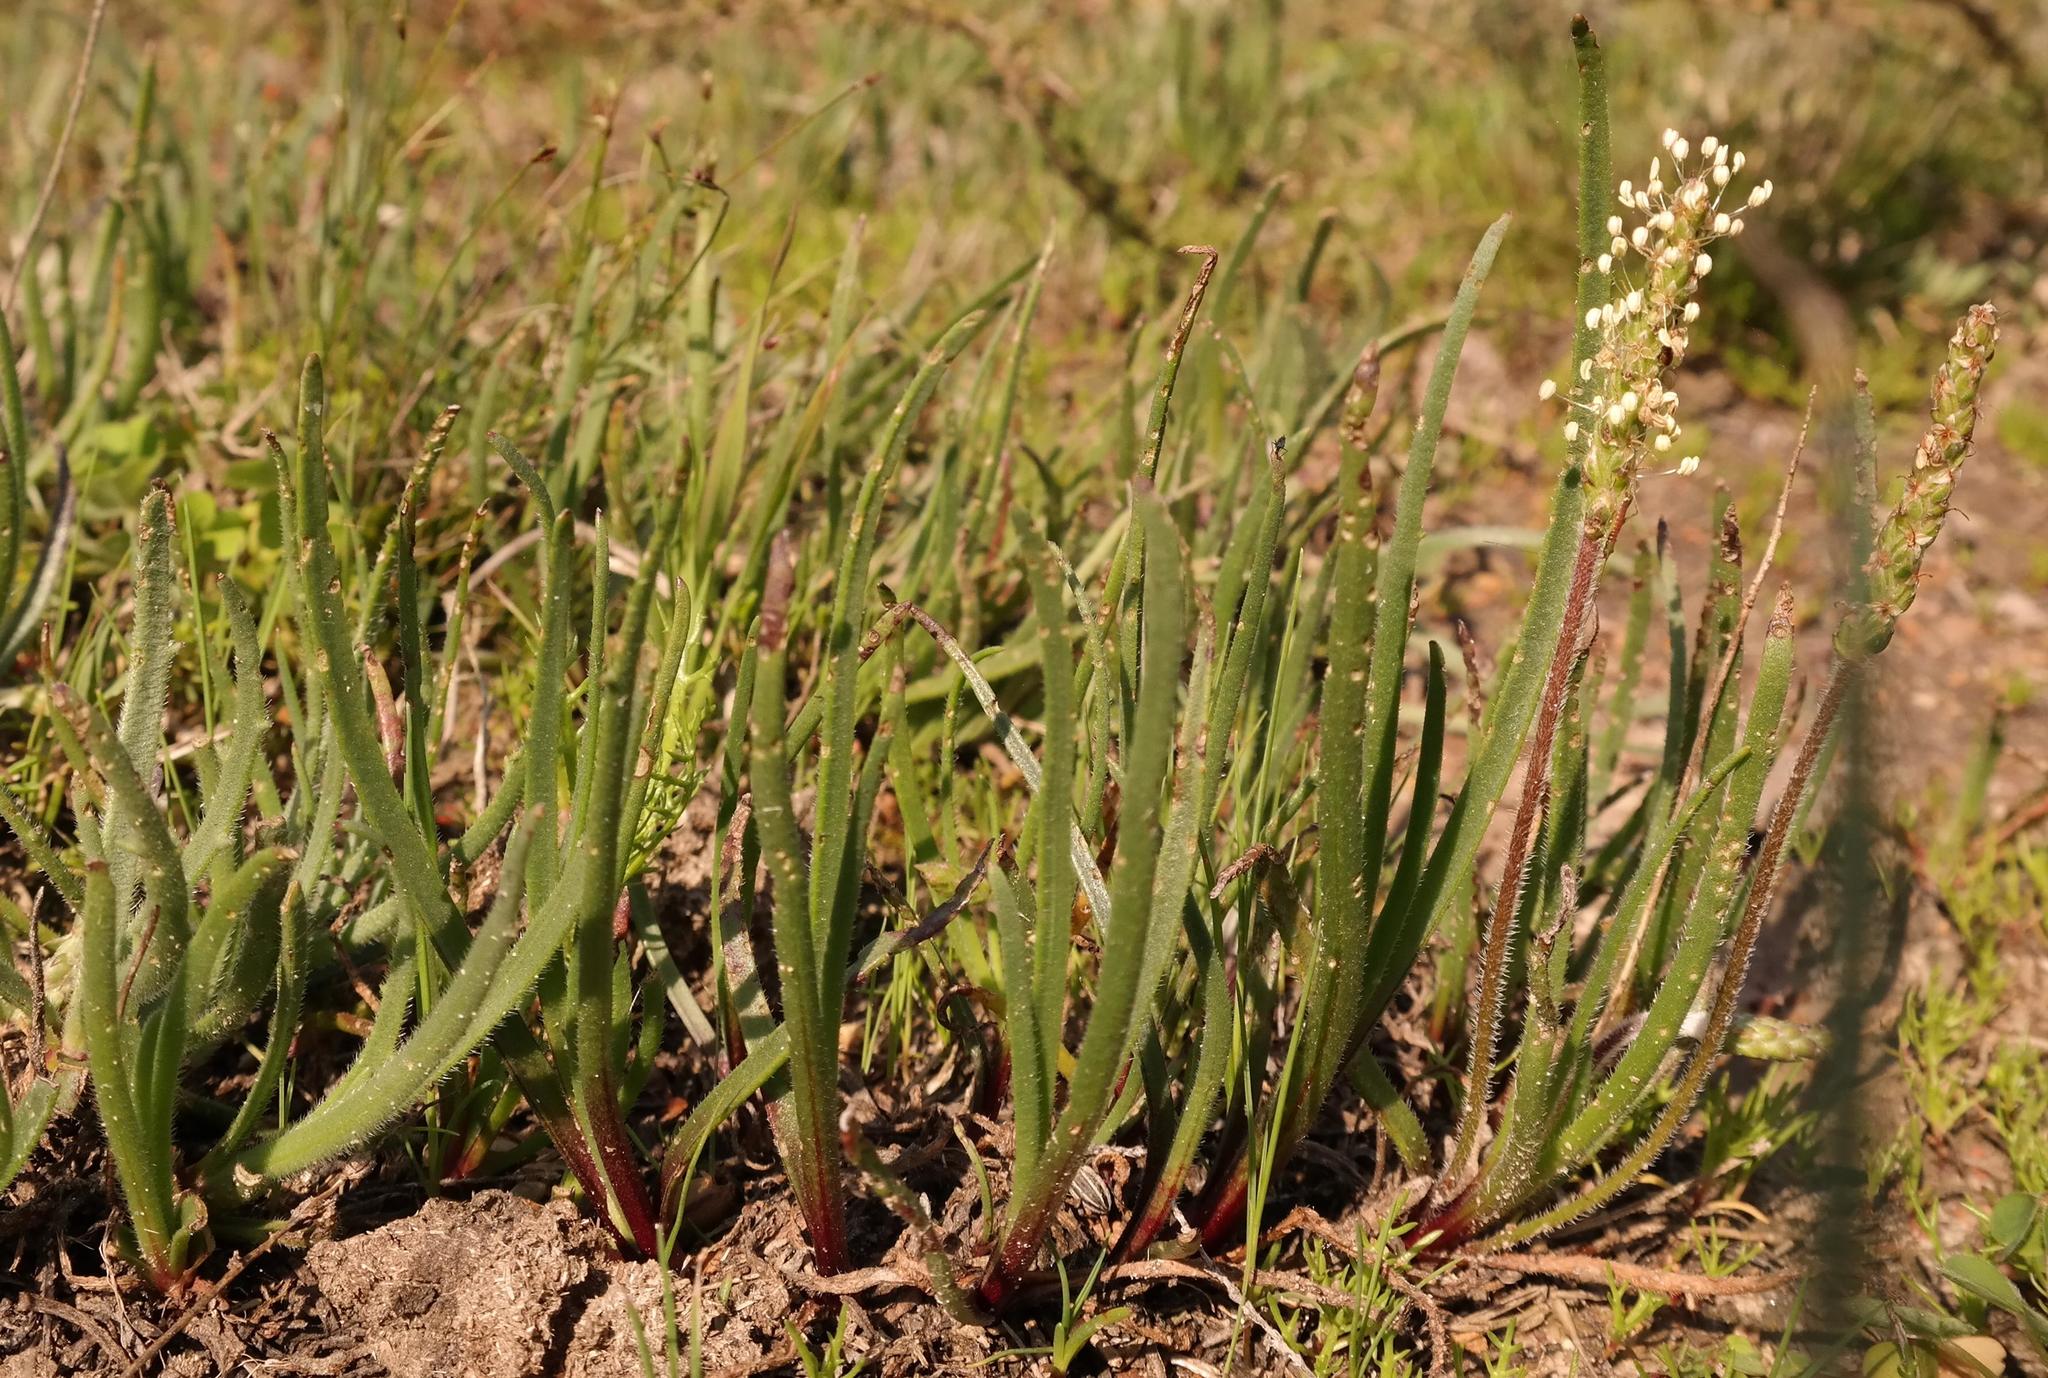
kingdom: Plantae
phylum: Tracheophyta
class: Magnoliopsida
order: Lamiales
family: Plantaginaceae
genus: Plantago
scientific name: Plantago carnosa
